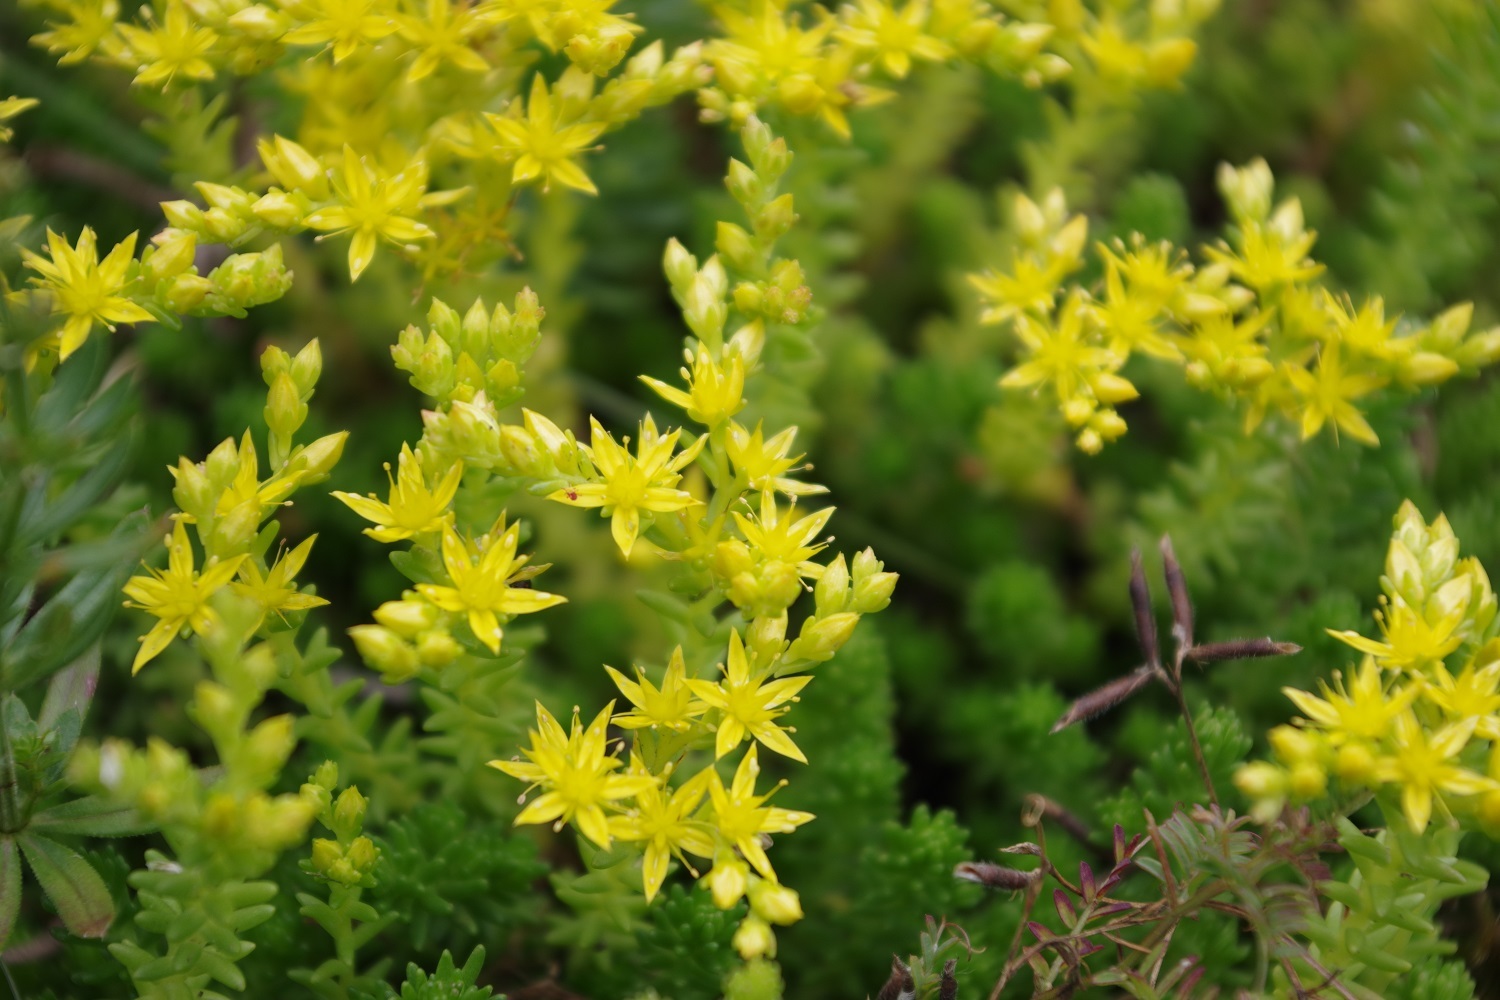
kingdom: Plantae
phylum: Tracheophyta
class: Magnoliopsida
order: Saxifragales
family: Crassulaceae
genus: Sedum
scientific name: Sedum sexangulare
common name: Tasteless stonecrop
